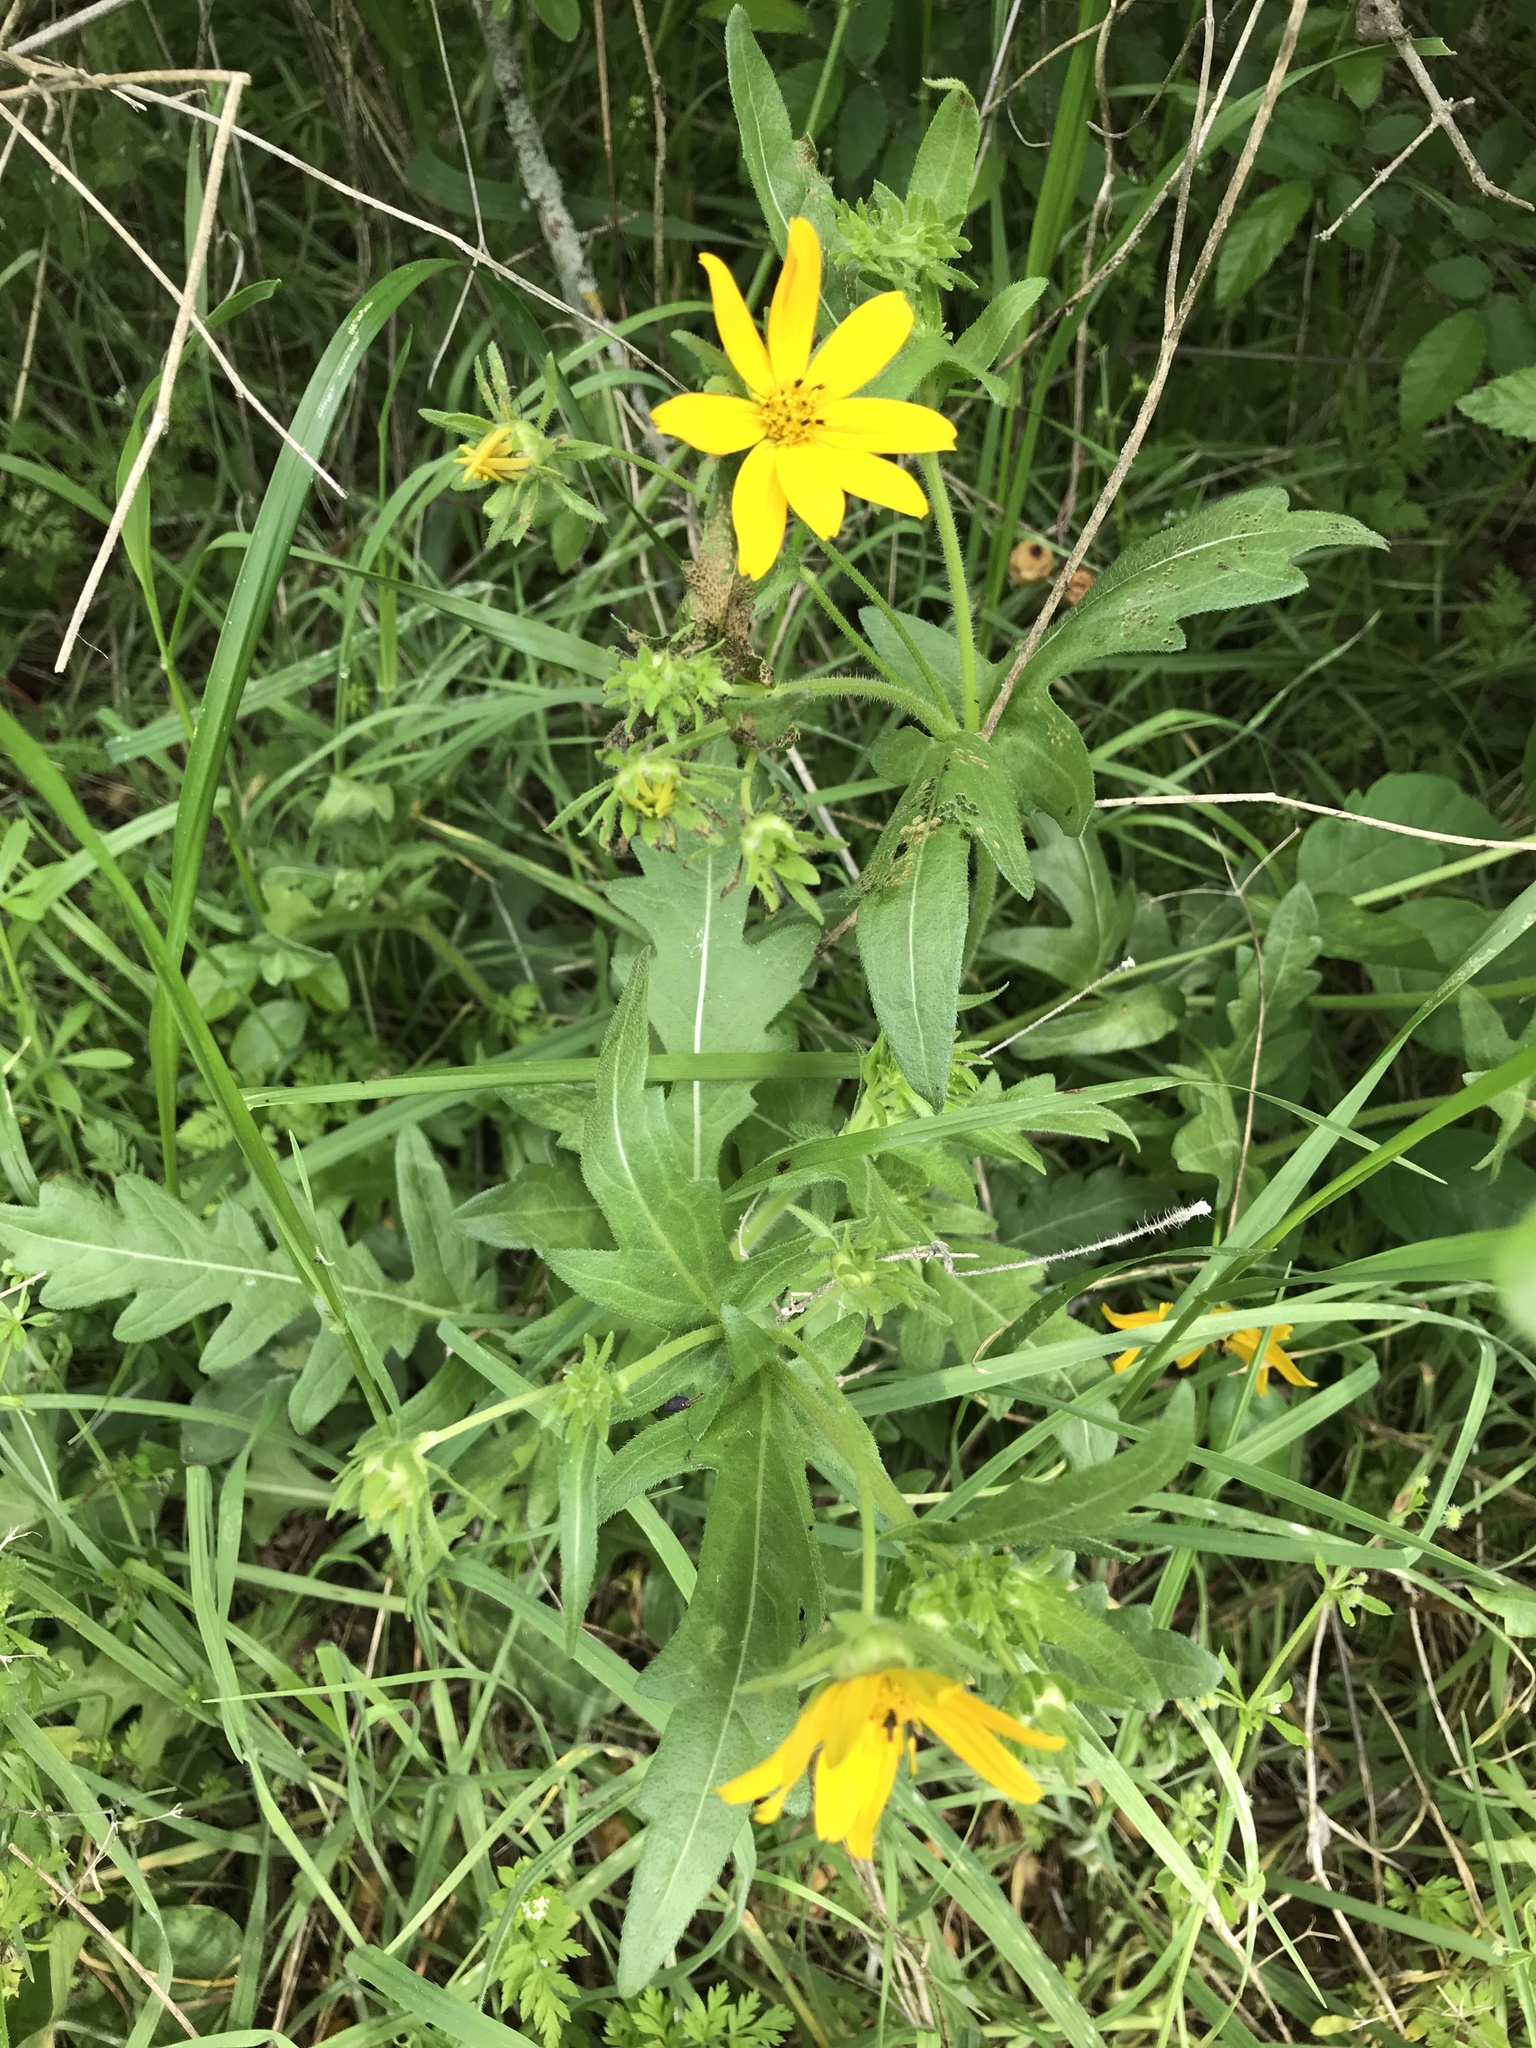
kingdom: Plantae
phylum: Tracheophyta
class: Magnoliopsida
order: Asterales
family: Asteraceae
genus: Engelmannia
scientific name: Engelmannia peristenia
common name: Engelmann's daisy
